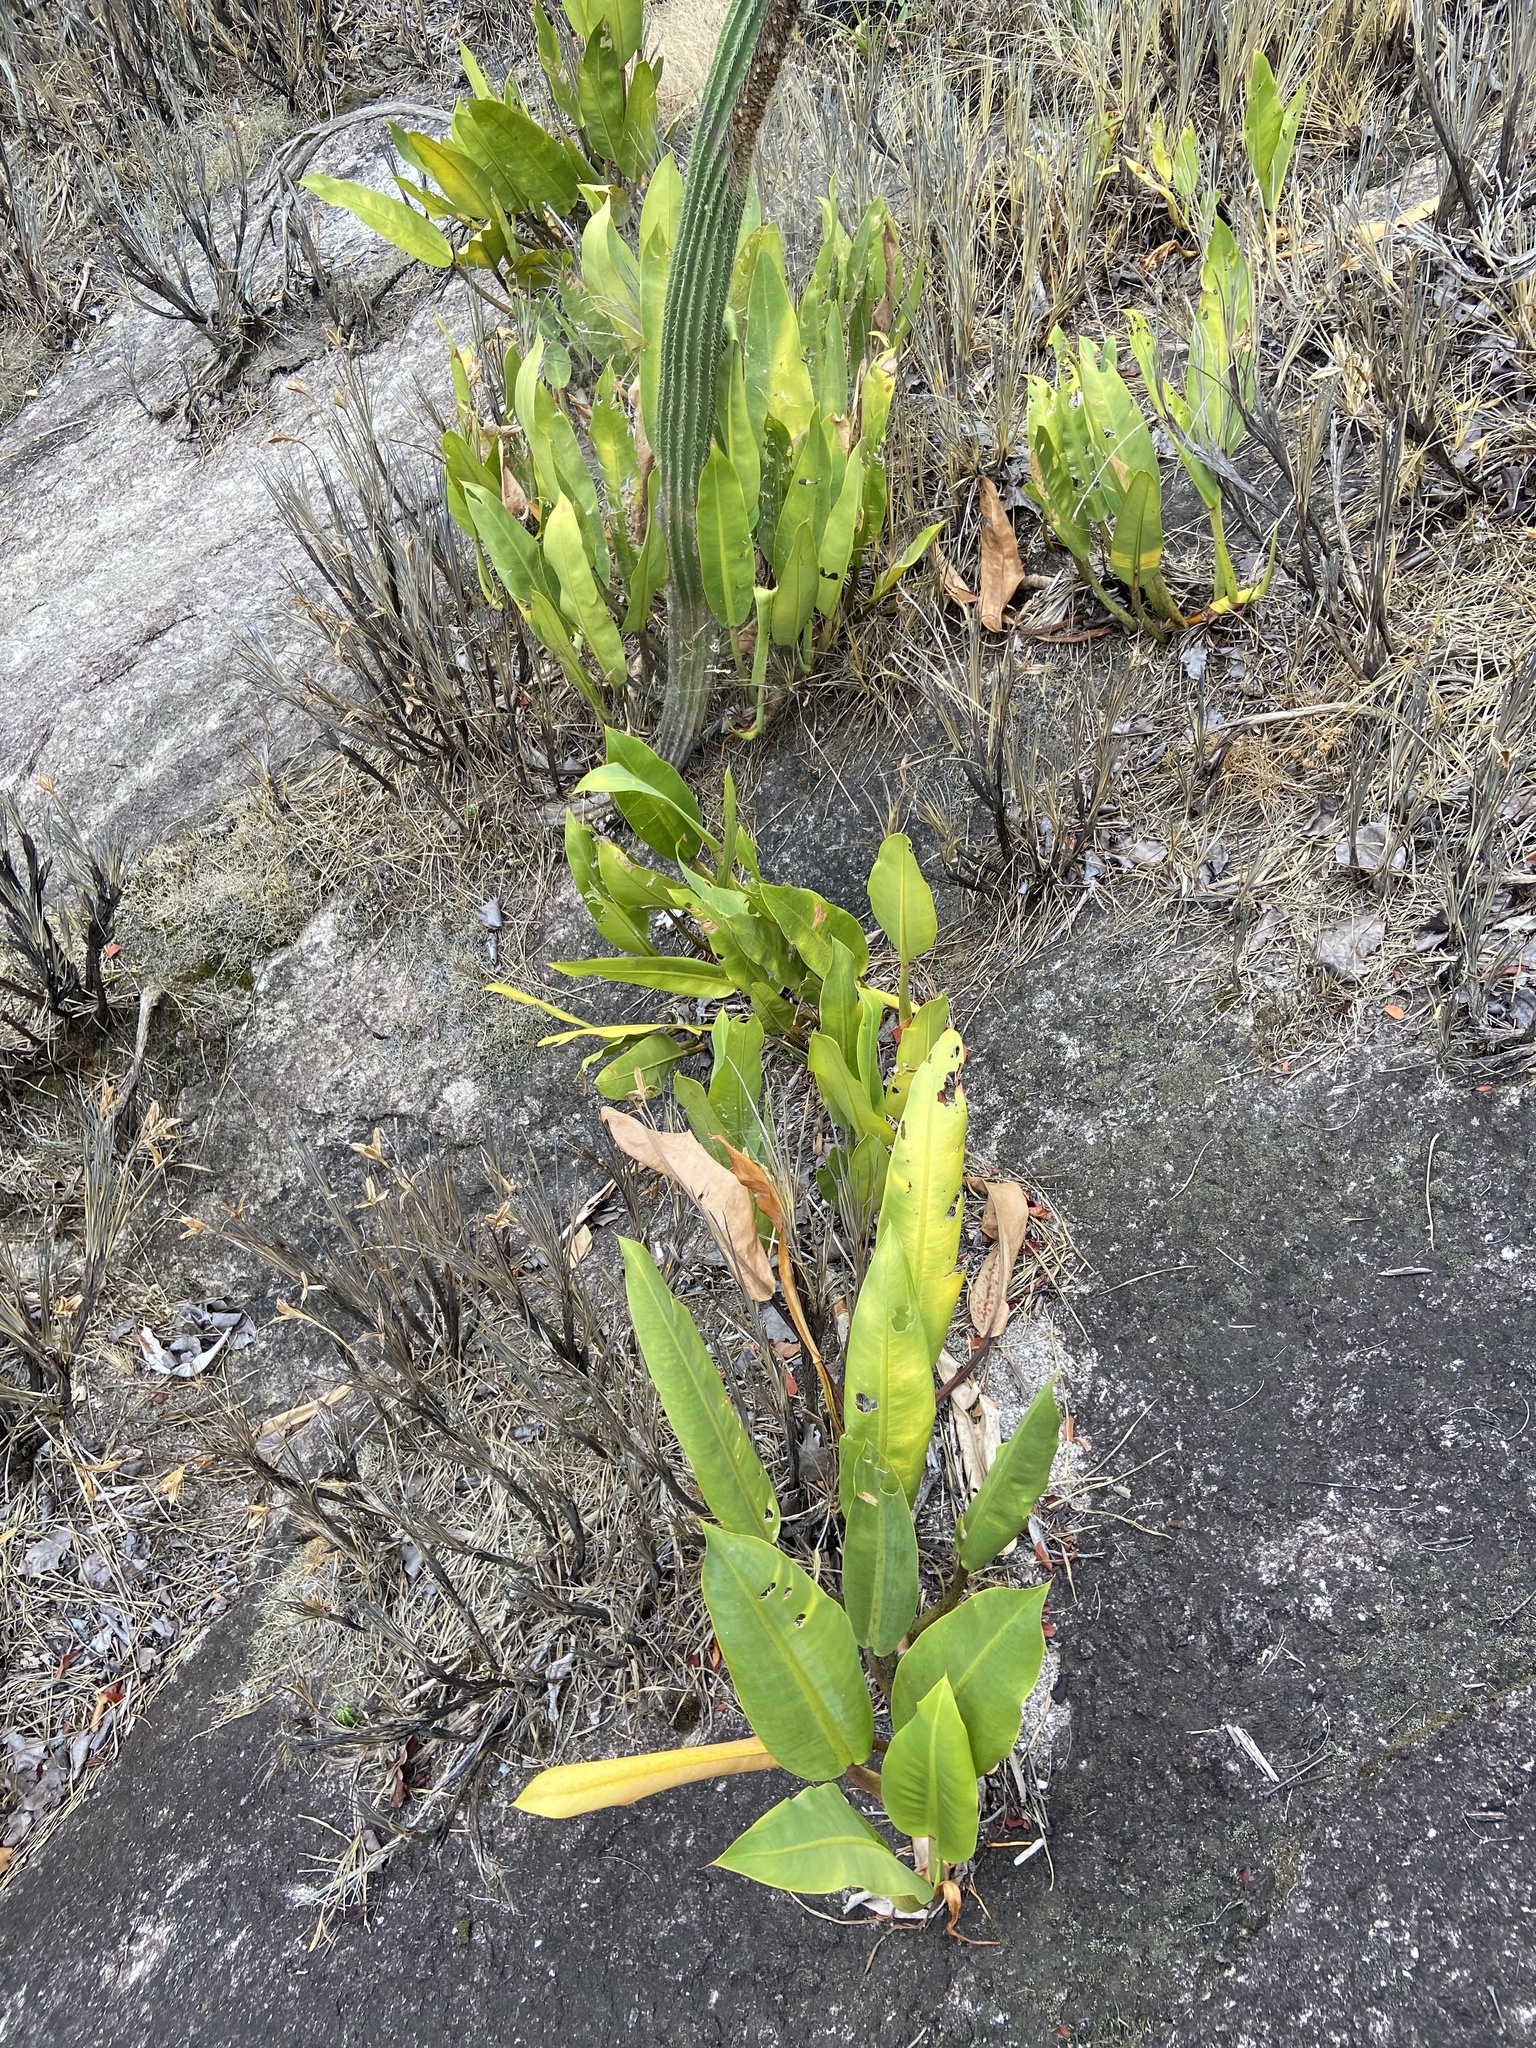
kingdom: Plantae
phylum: Tracheophyta
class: Liliopsida
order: Alismatales
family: Araceae
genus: Philodendron
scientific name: Philodendron edmundoi
